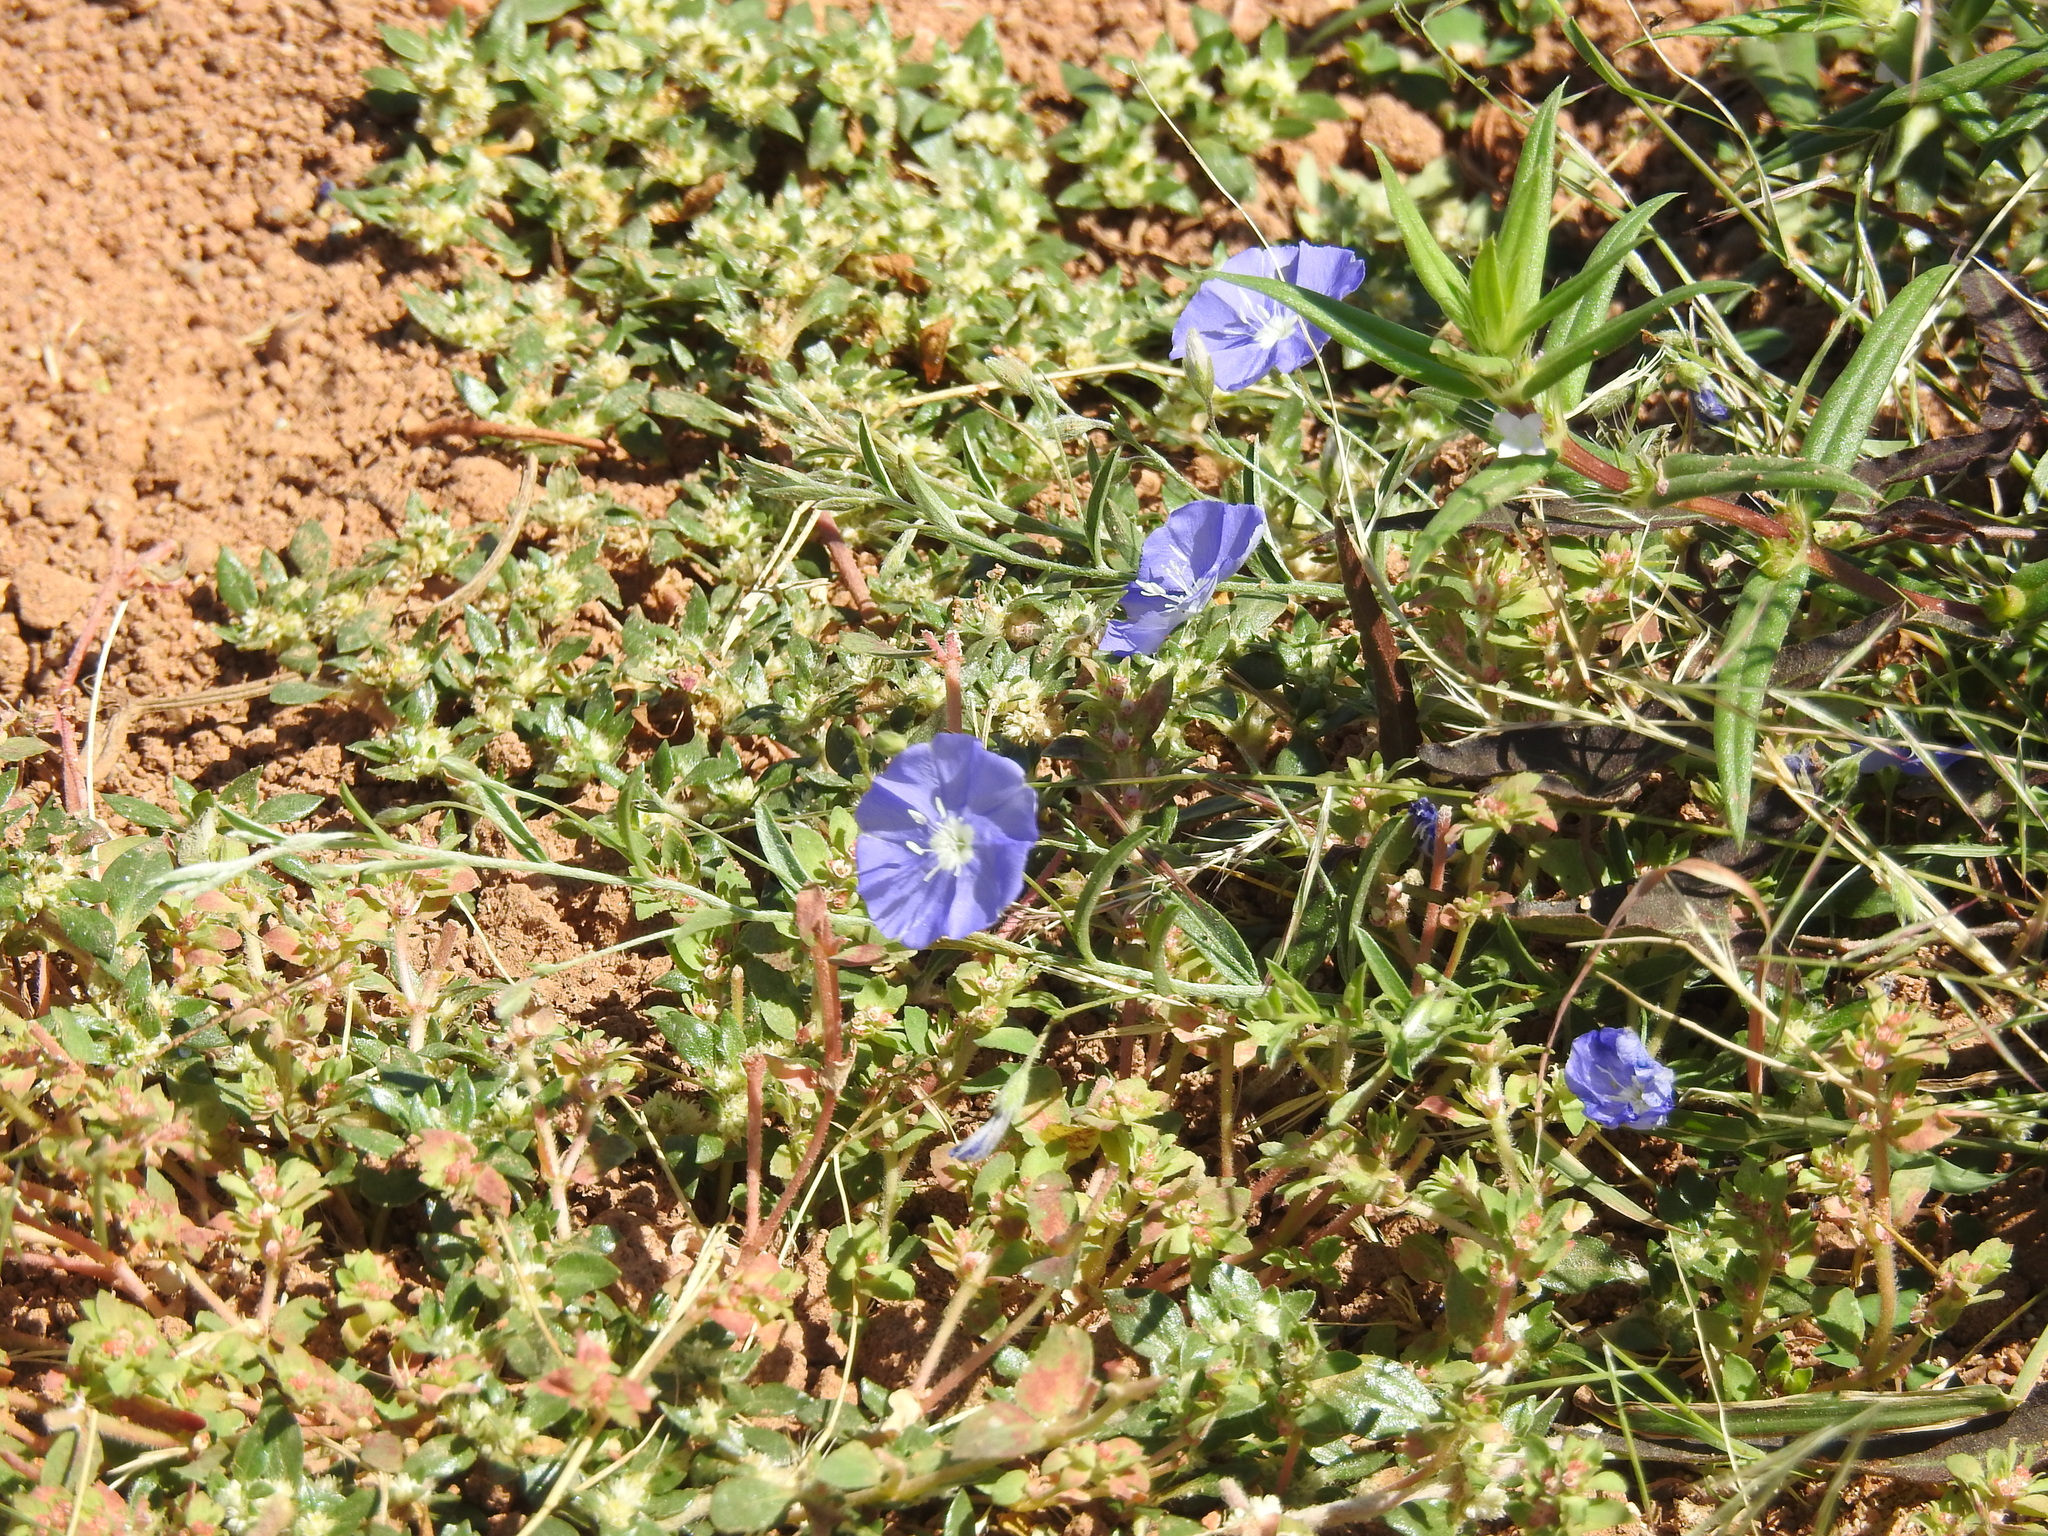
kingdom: Plantae
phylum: Tracheophyta
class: Magnoliopsida
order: Solanales
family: Convolvulaceae
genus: Evolvulus
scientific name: Evolvulus arizonicus
